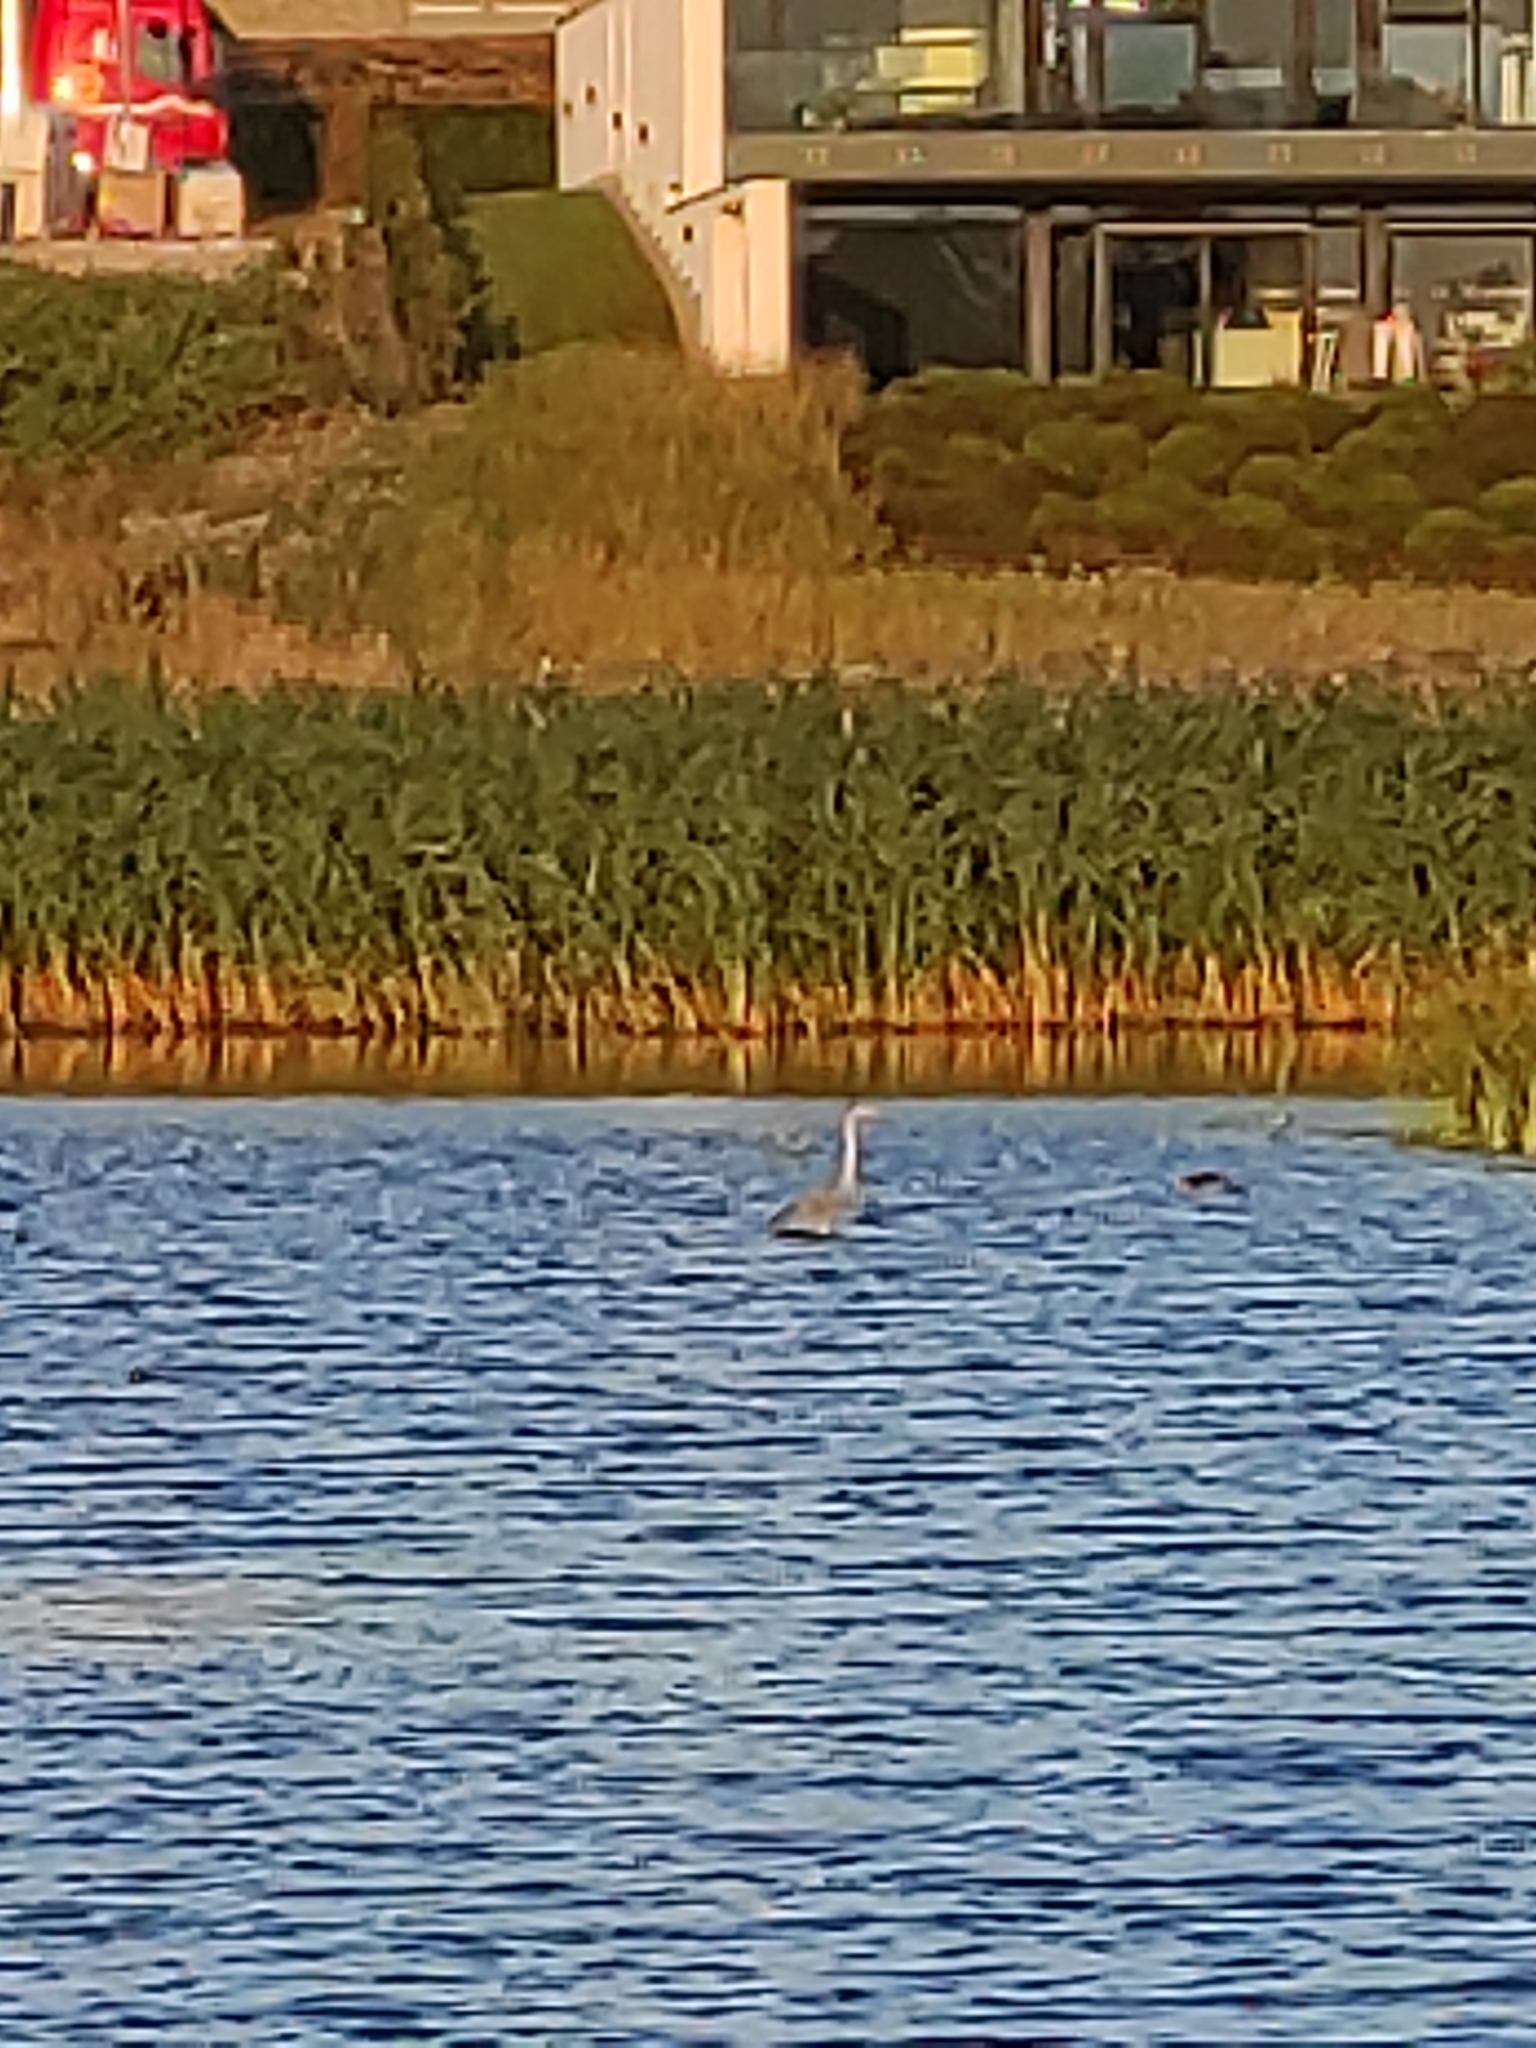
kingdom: Animalia
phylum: Chordata
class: Aves
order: Pelecaniformes
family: Ardeidae
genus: Ardea
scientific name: Ardea cinerea
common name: Grey heron
